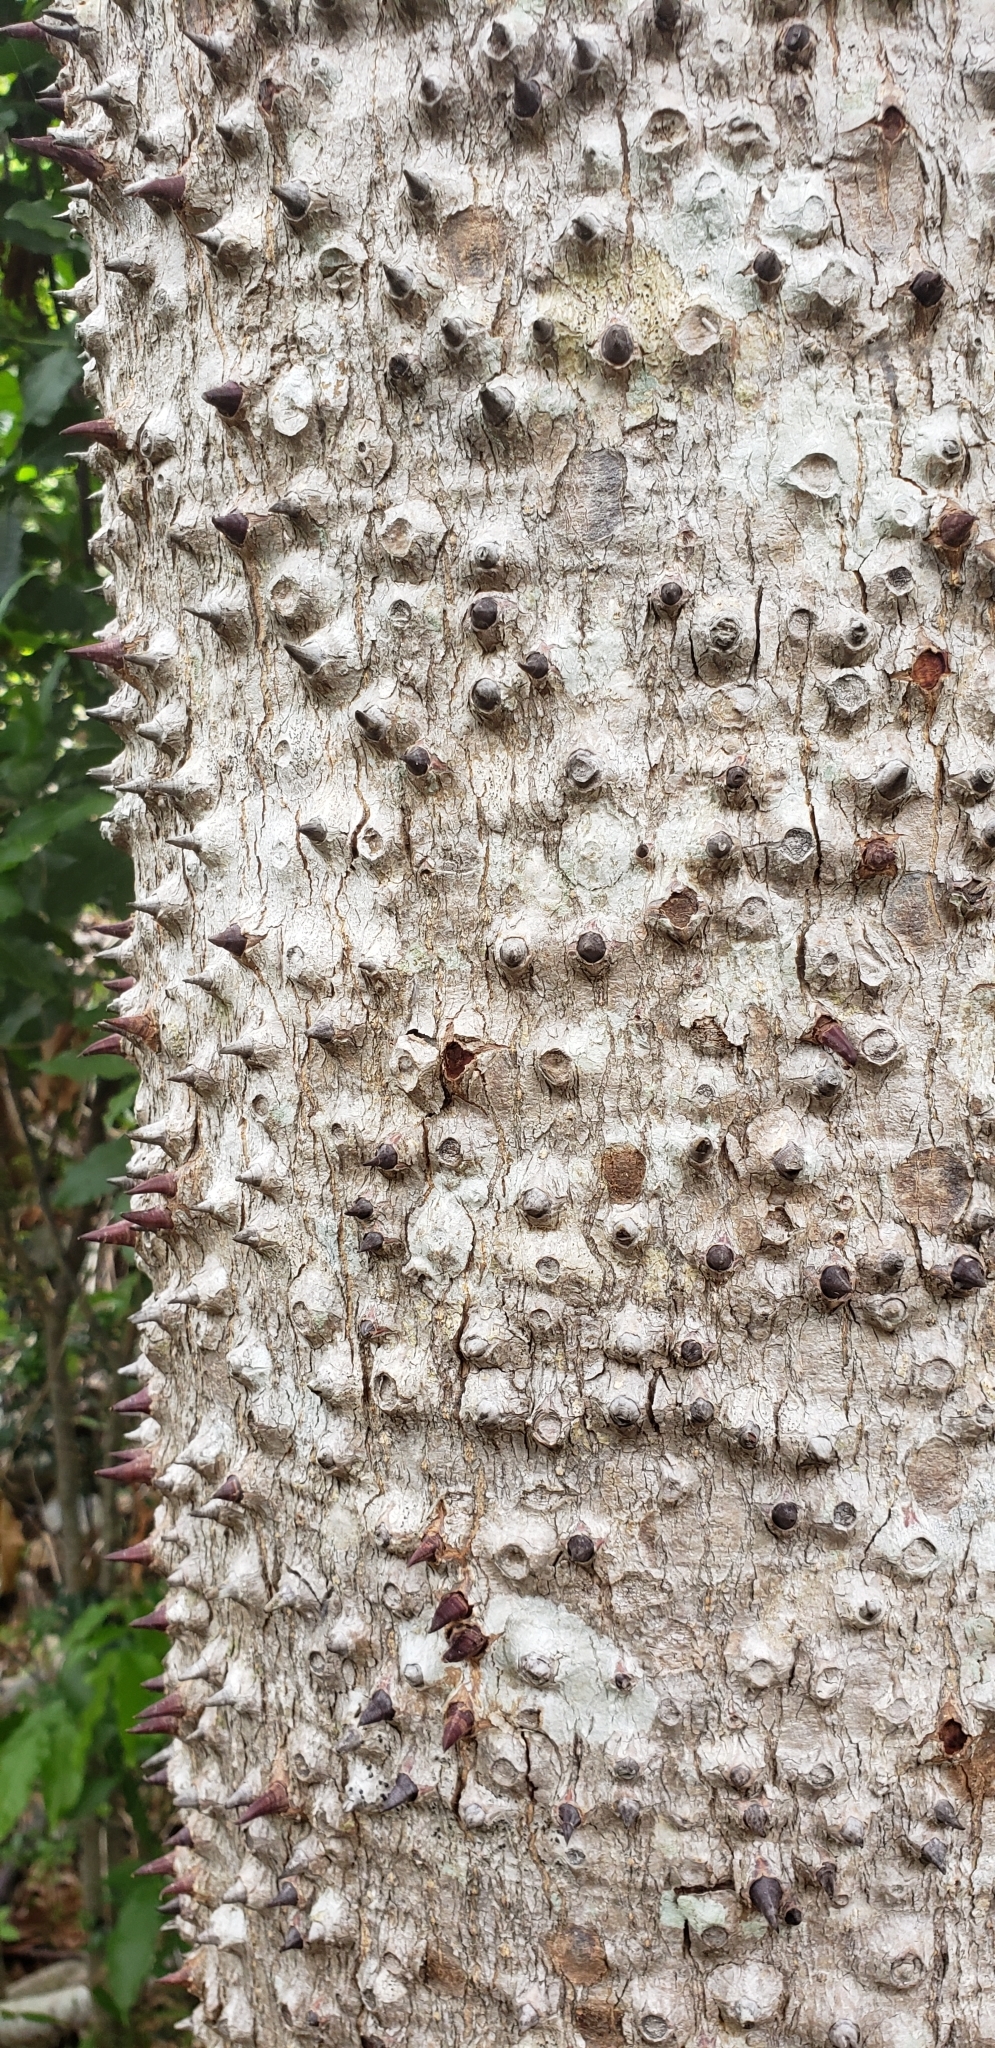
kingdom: Plantae
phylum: Tracheophyta
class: Magnoliopsida
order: Malpighiales
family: Euphorbiaceae
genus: Hura
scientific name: Hura crepitans
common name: Sandboxtree
